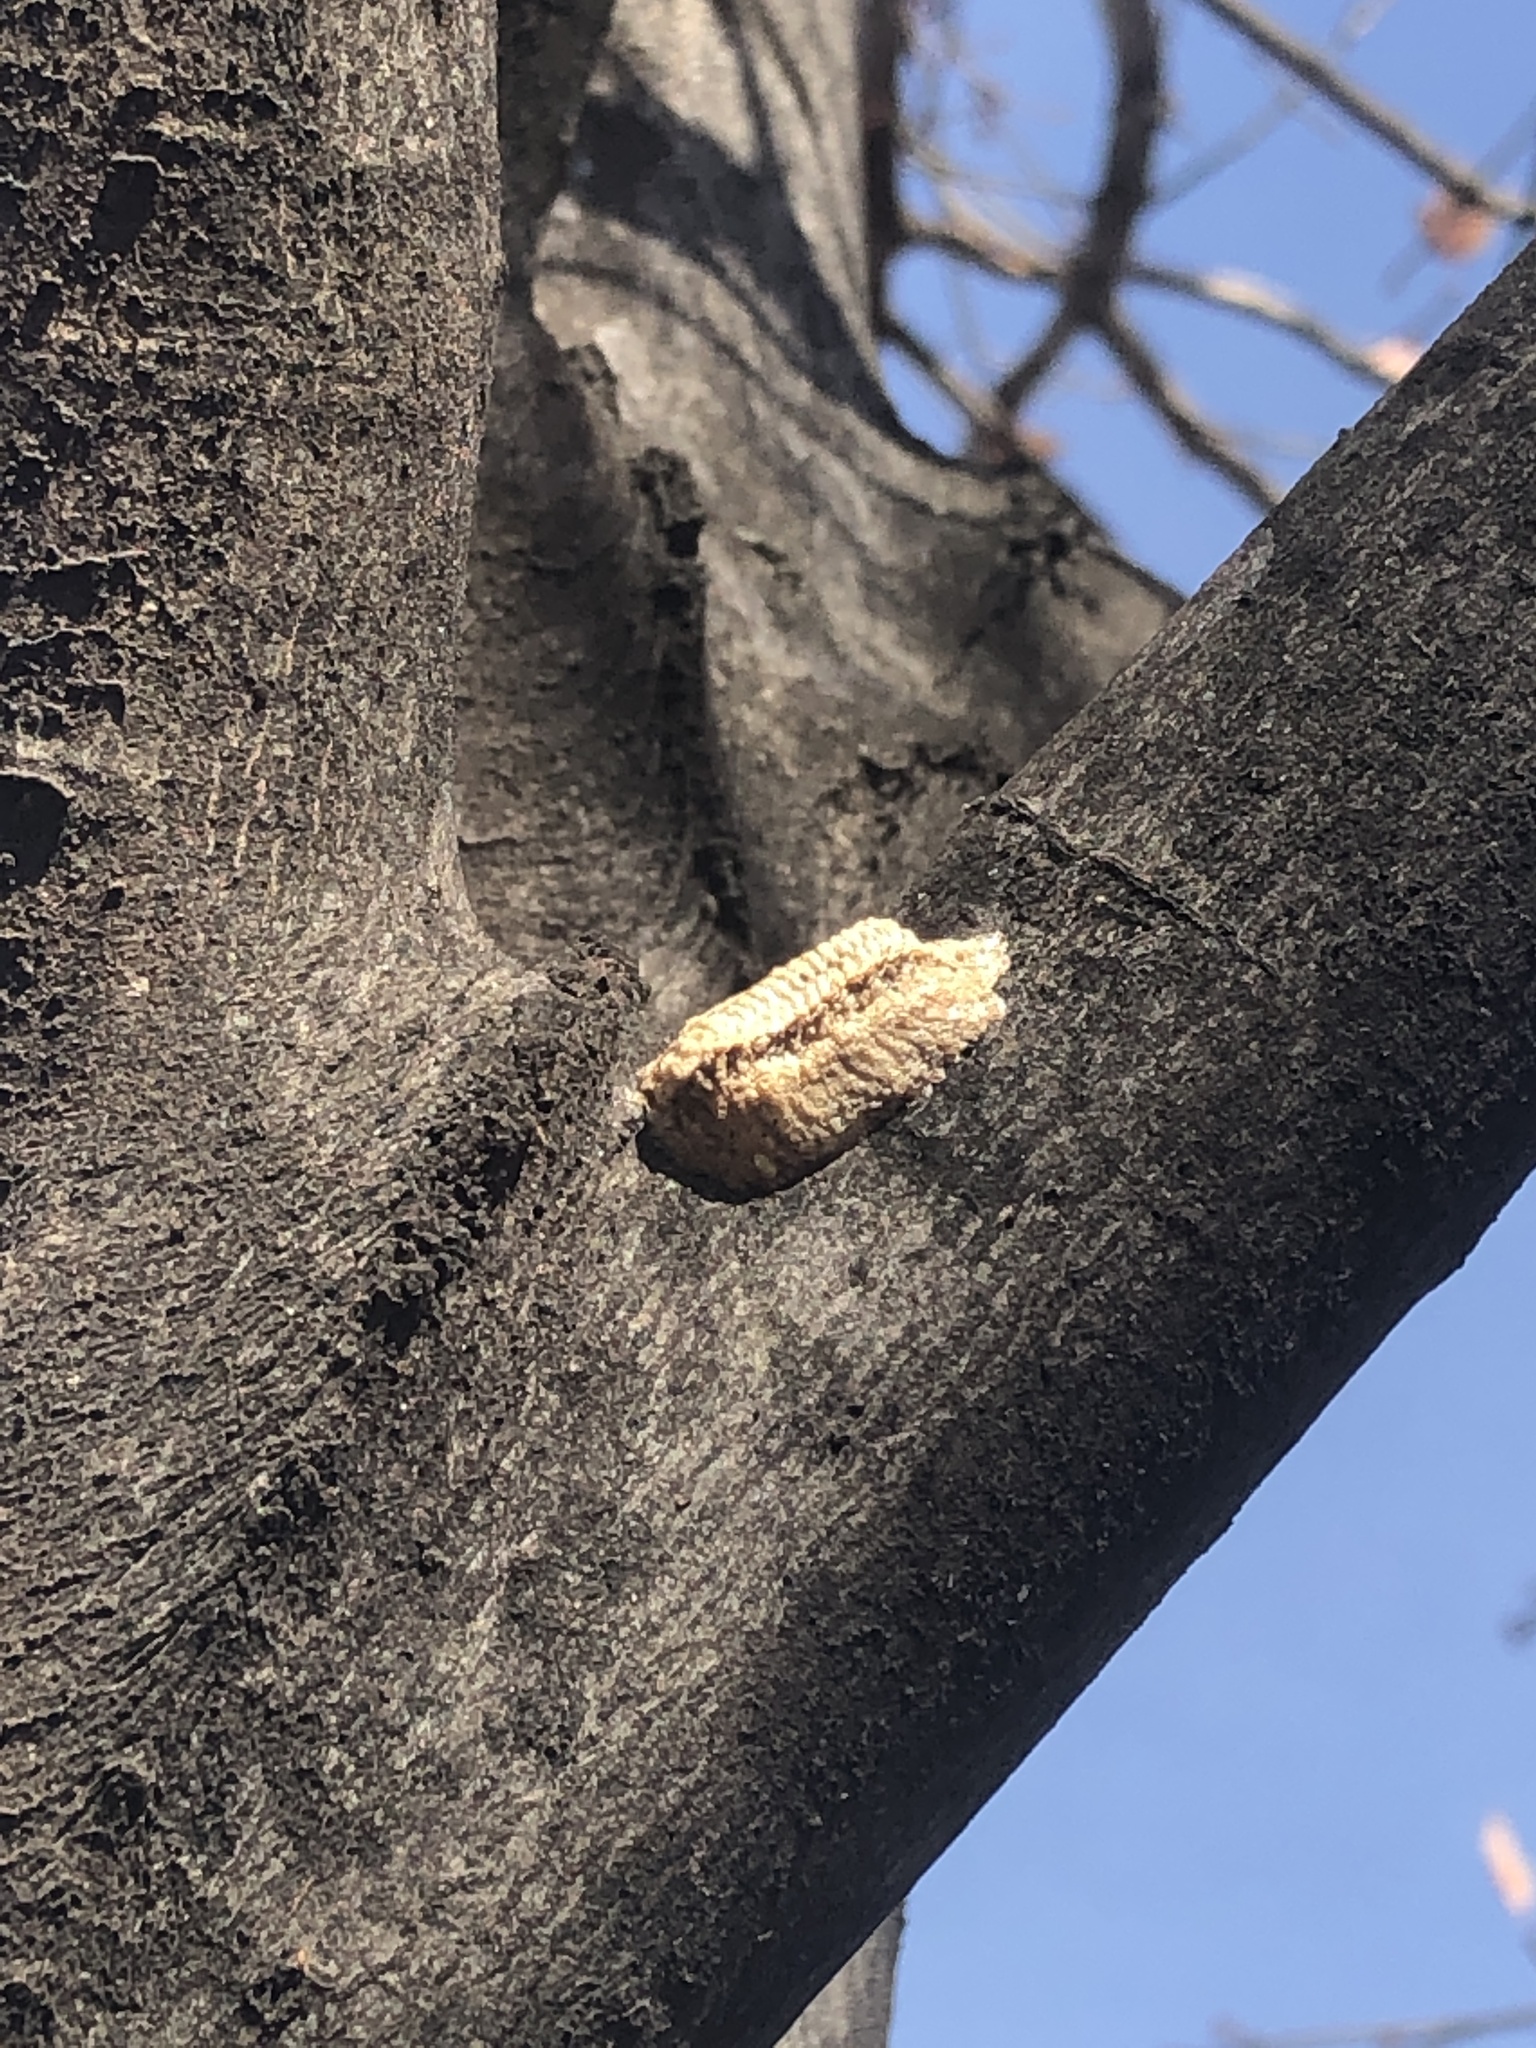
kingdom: Animalia
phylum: Arthropoda
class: Insecta
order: Mantodea
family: Mantidae
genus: Stagmomantis
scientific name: Stagmomantis carolina
